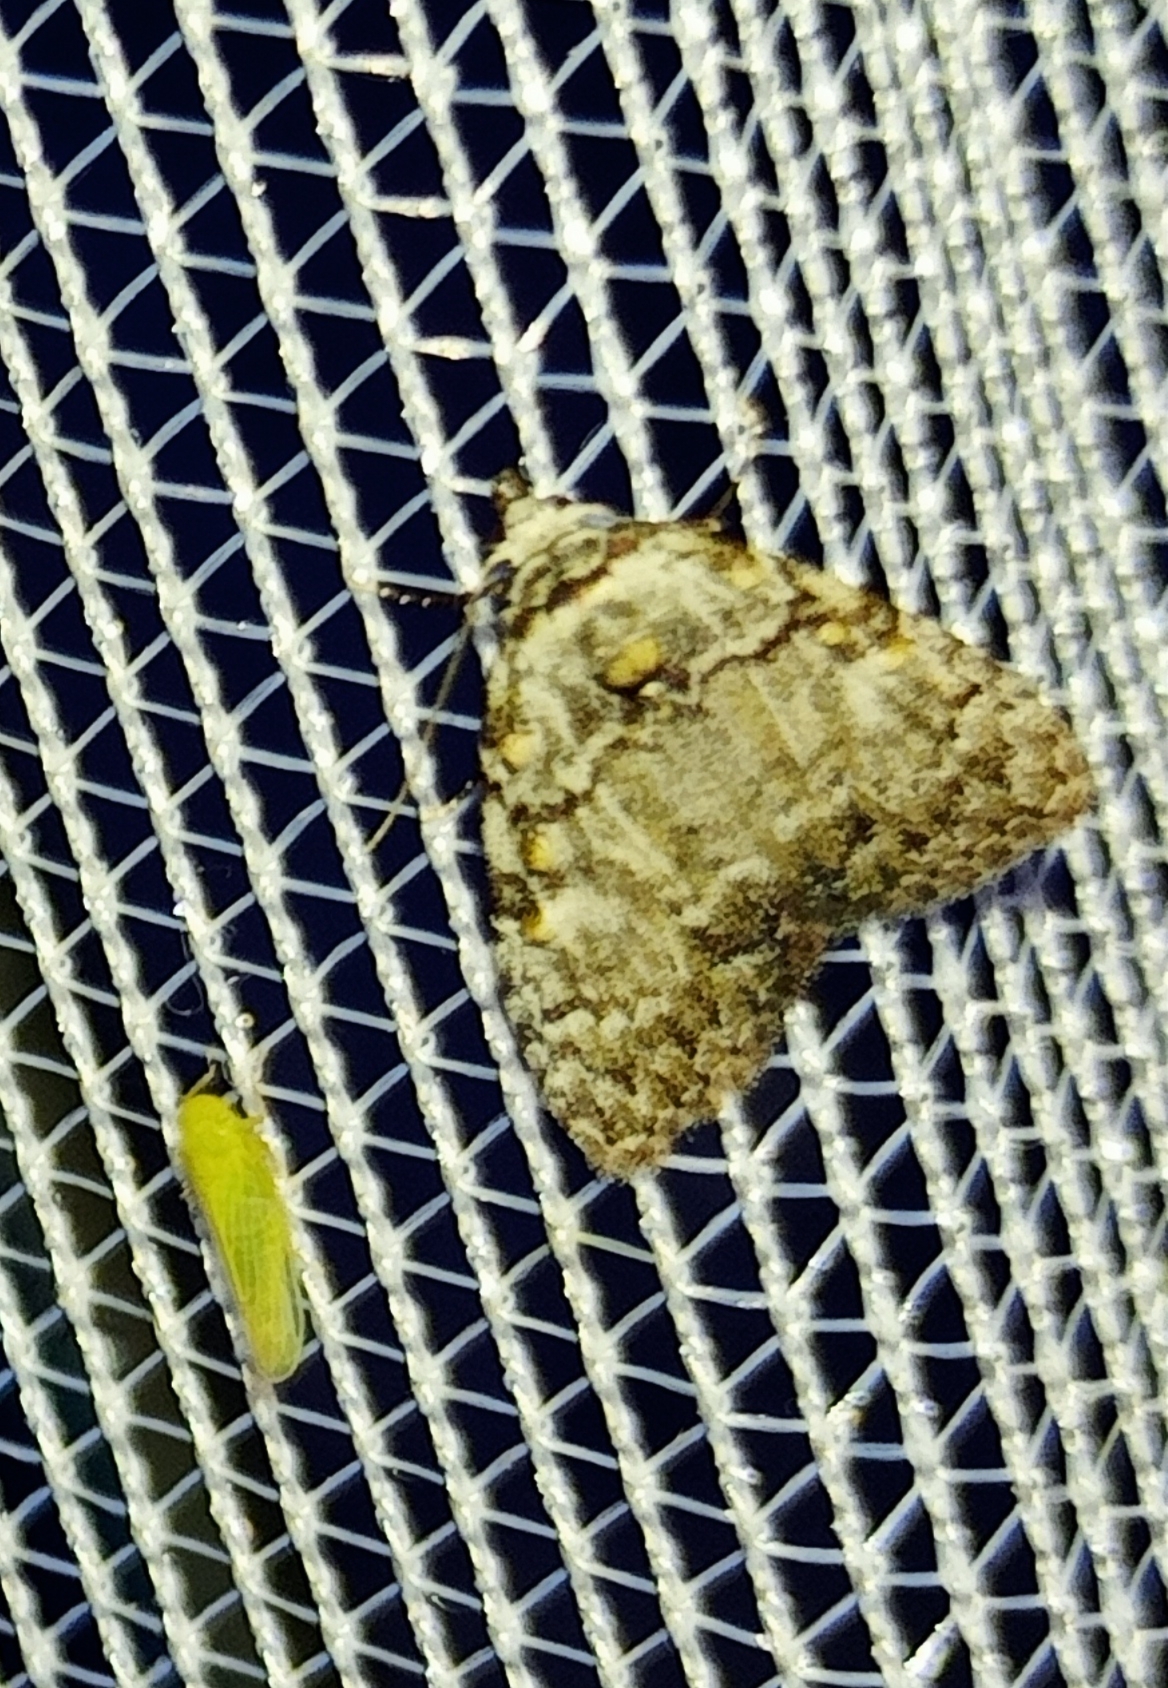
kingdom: Animalia
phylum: Arthropoda
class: Insecta
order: Lepidoptera
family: Nolidae
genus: Meganola
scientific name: Meganola strigula
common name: Small black arches
